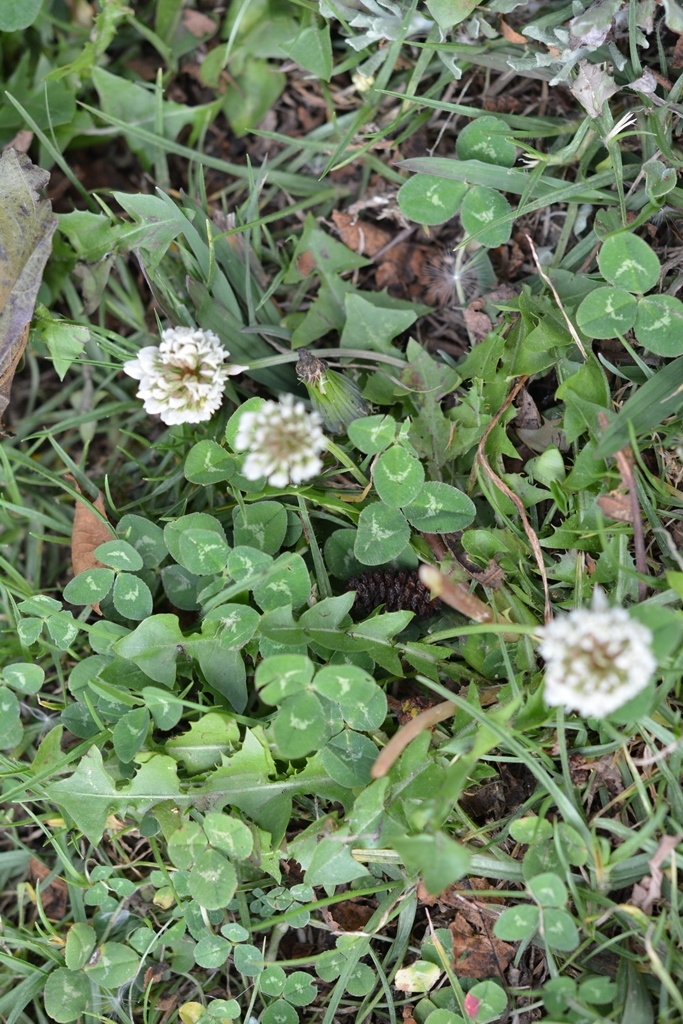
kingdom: Plantae
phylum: Tracheophyta
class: Magnoliopsida
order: Fabales
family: Fabaceae
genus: Trifolium
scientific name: Trifolium repens
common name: White clover
